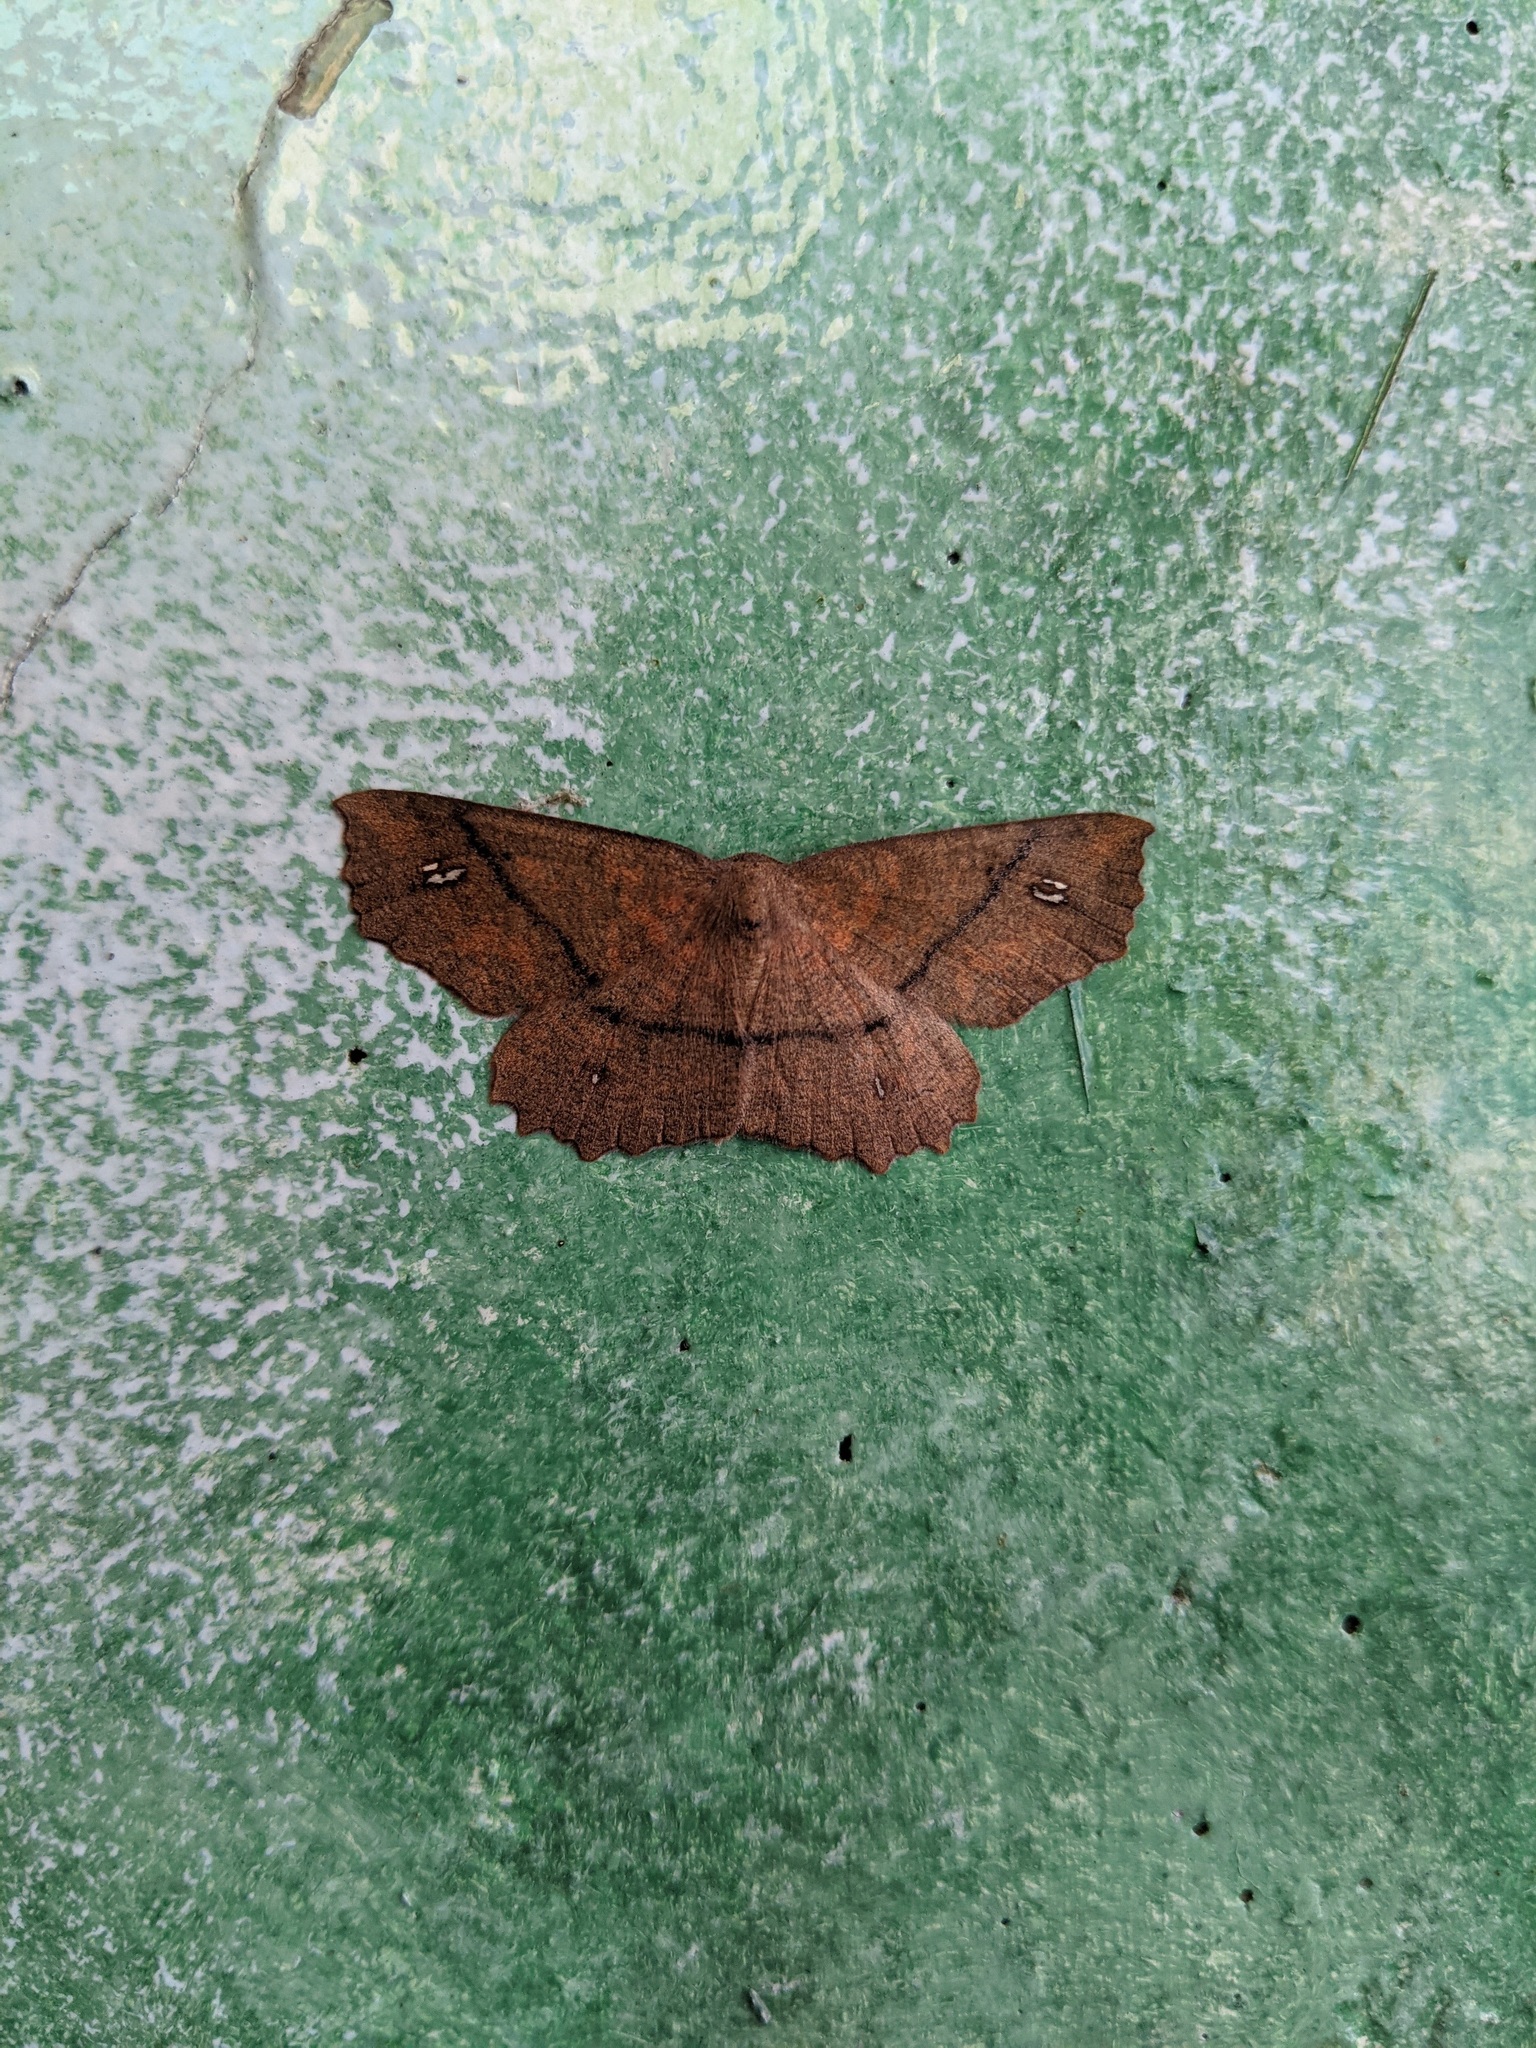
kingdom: Animalia
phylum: Arthropoda
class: Insecta
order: Lepidoptera
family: Geometridae
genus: Xyridacma
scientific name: Xyridacma ustaria
